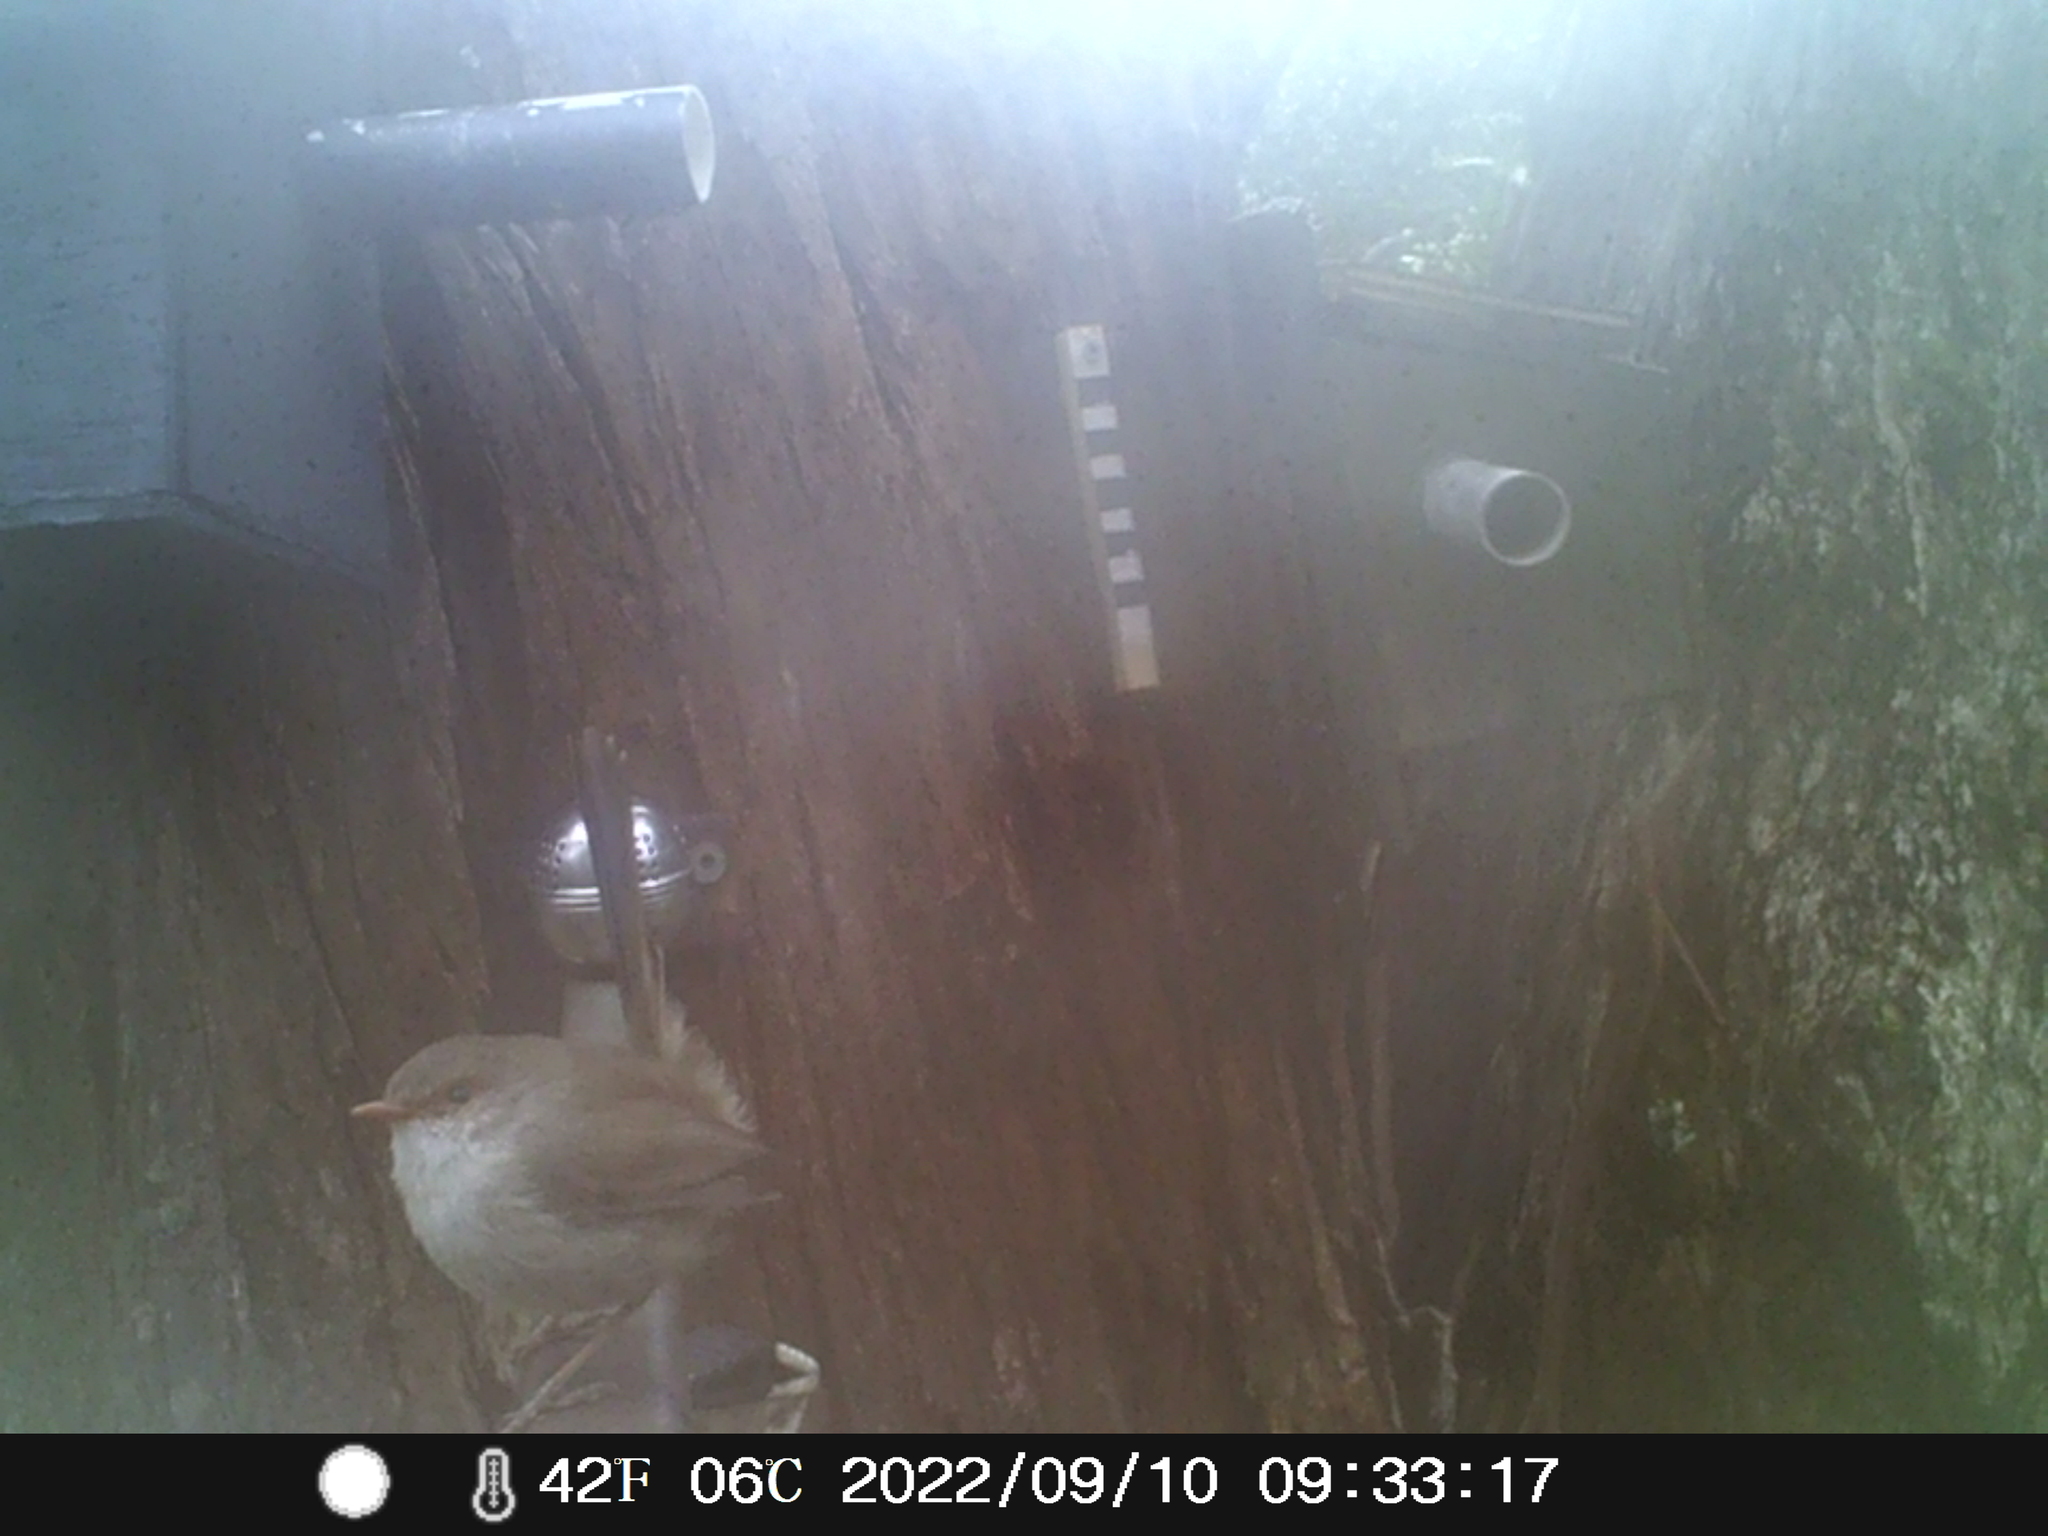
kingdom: Animalia
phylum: Chordata
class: Aves
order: Passeriformes
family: Maluridae
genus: Malurus
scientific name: Malurus cyaneus
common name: Superb fairywren
